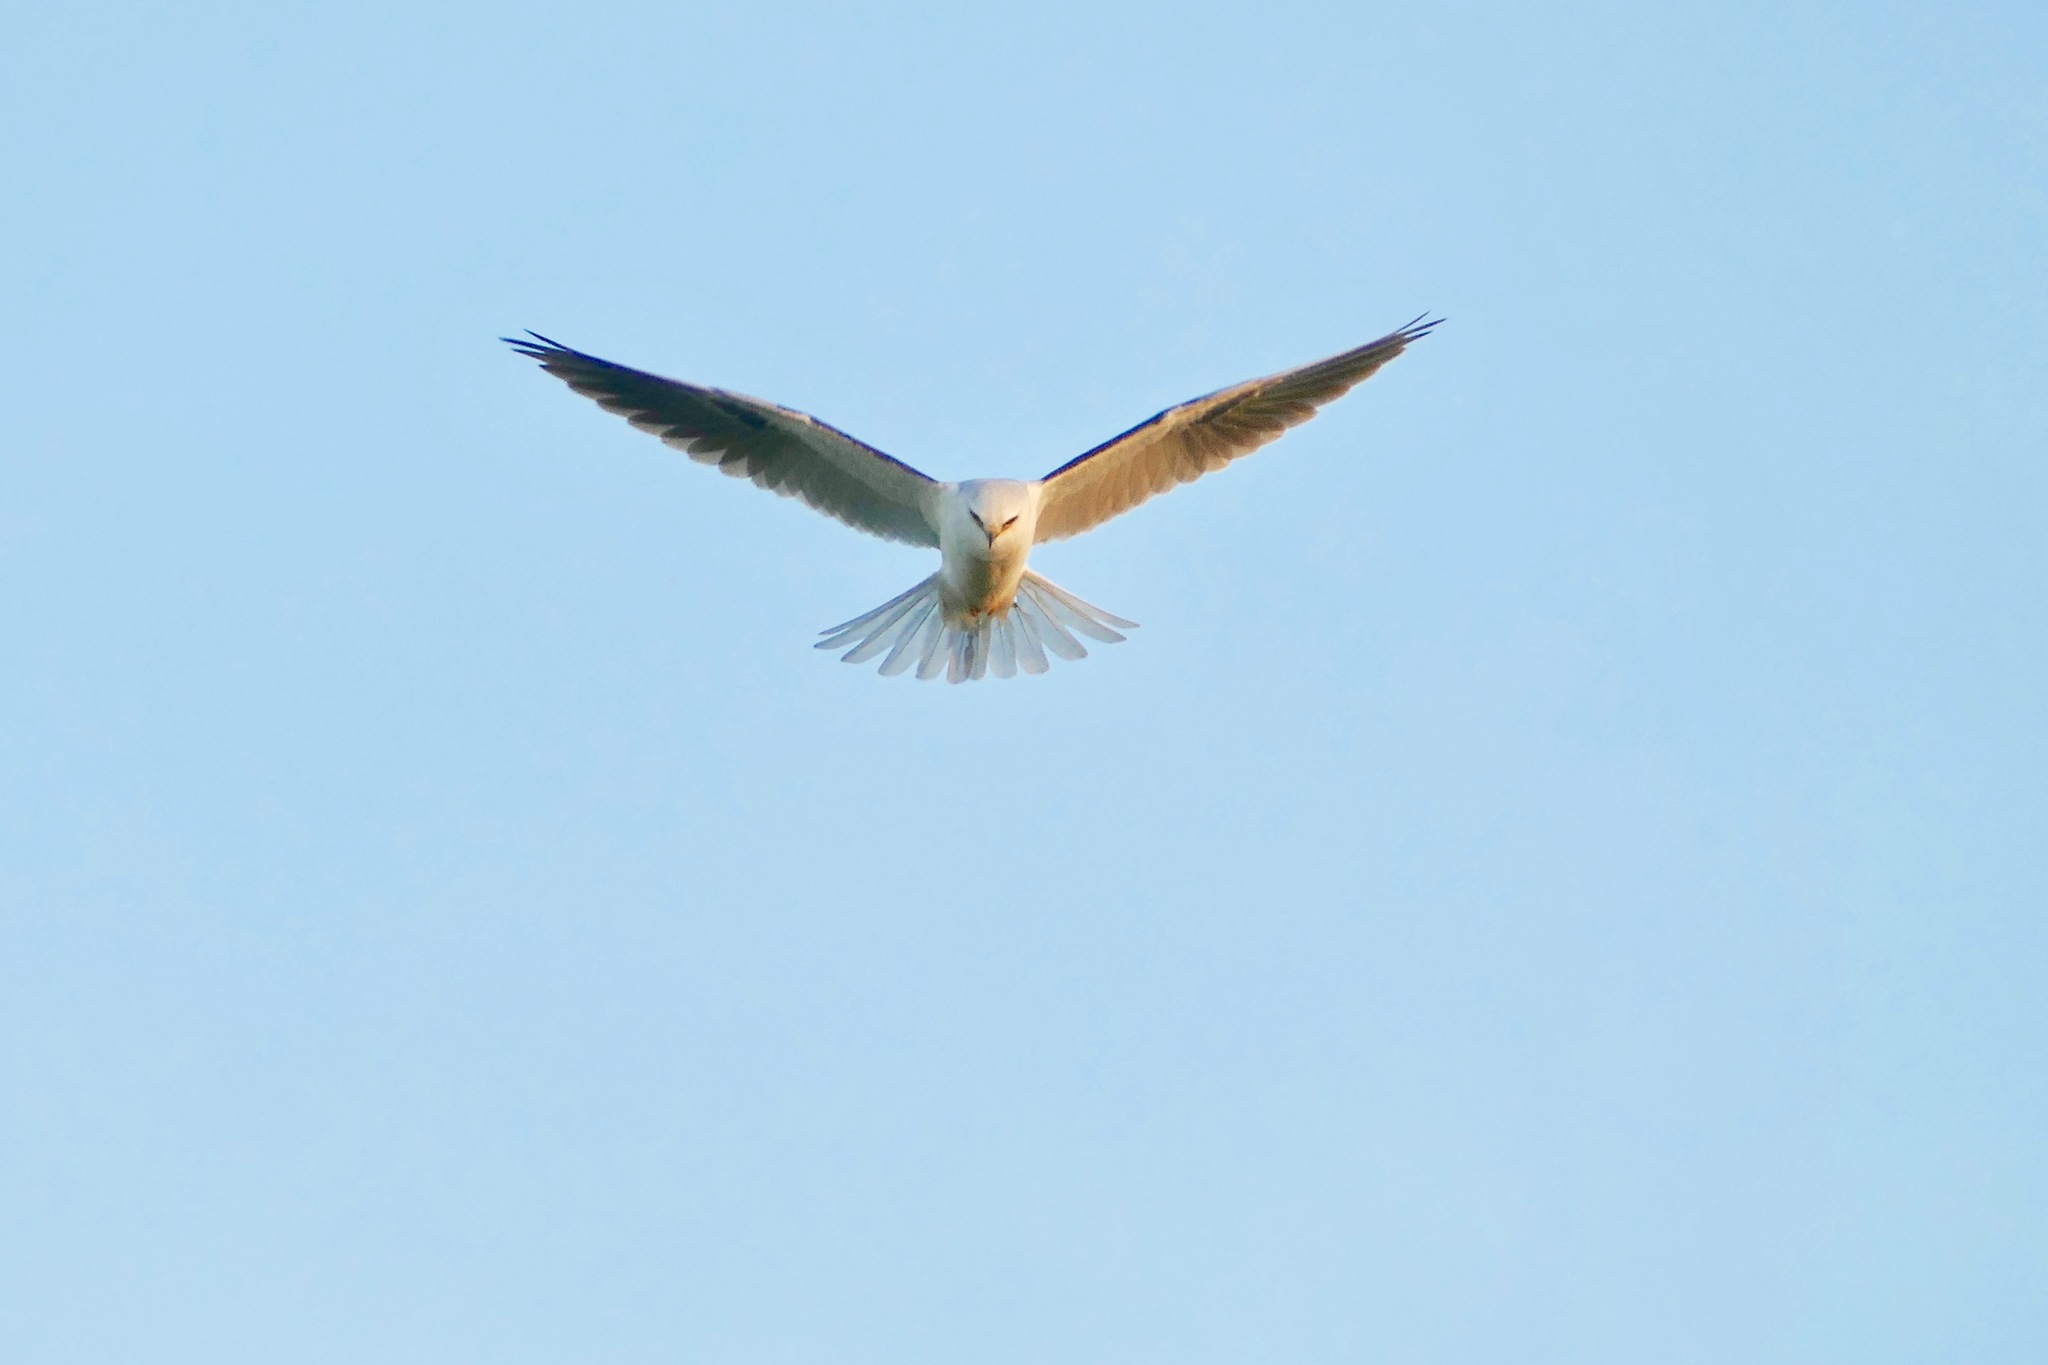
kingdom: Animalia
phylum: Chordata
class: Aves
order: Accipitriformes
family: Accipitridae
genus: Elanus
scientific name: Elanus leucurus
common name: White-tailed kite
